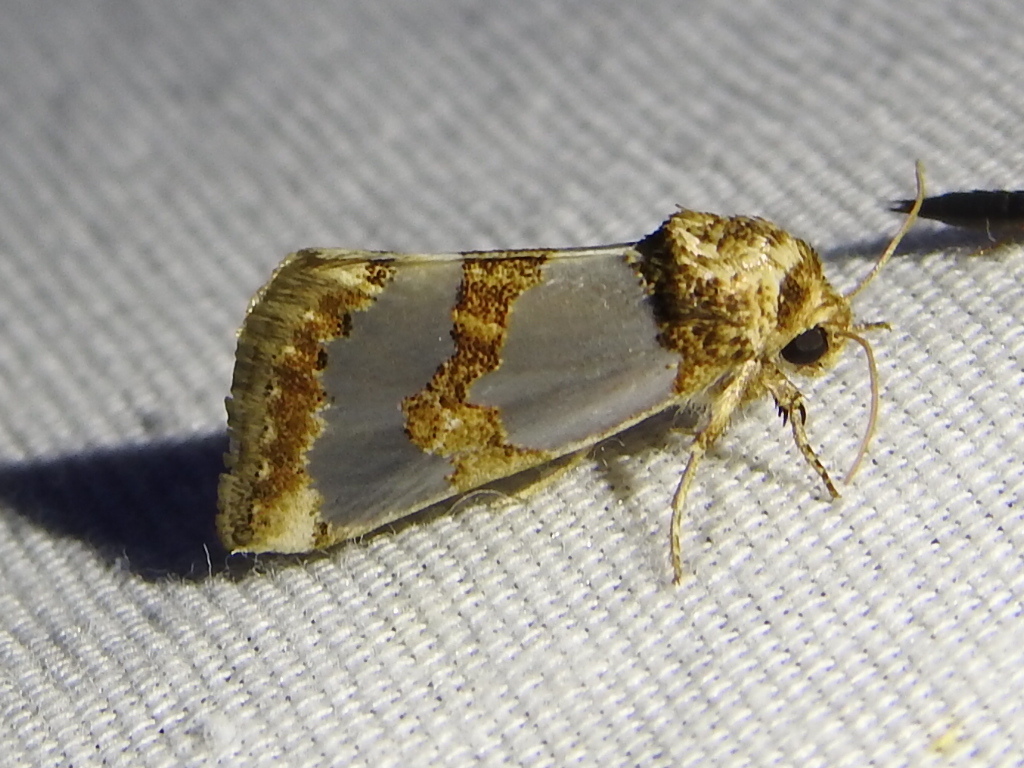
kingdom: Animalia
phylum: Arthropoda
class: Insecta
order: Lepidoptera
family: Noctuidae
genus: Schinia
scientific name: Schinia chrysellus
